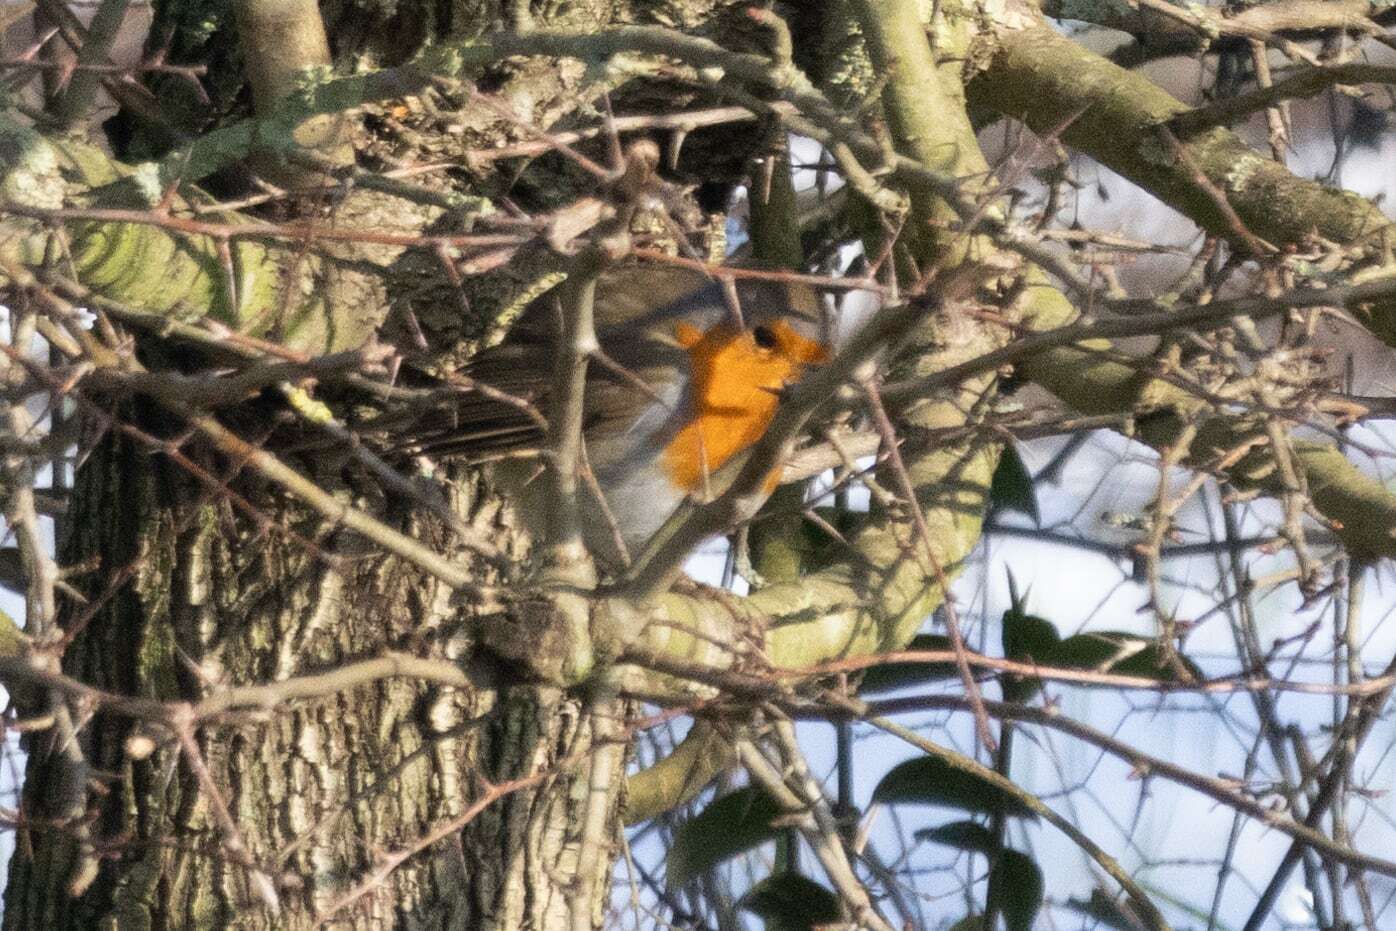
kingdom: Animalia
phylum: Chordata
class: Aves
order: Passeriformes
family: Muscicapidae
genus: Erithacus
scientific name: Erithacus rubecula
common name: European robin
